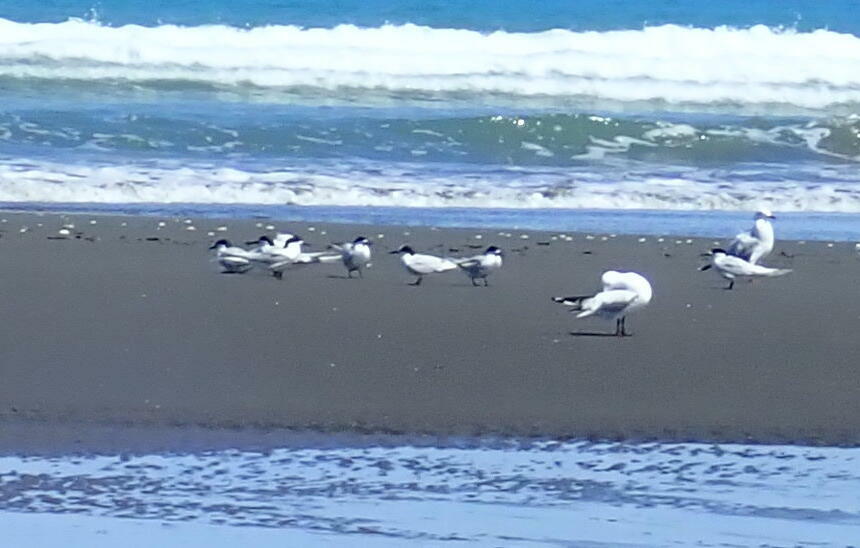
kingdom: Animalia
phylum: Chordata
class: Aves
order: Charadriiformes
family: Laridae
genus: Sterna
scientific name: Sterna striata
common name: White-fronted tern
